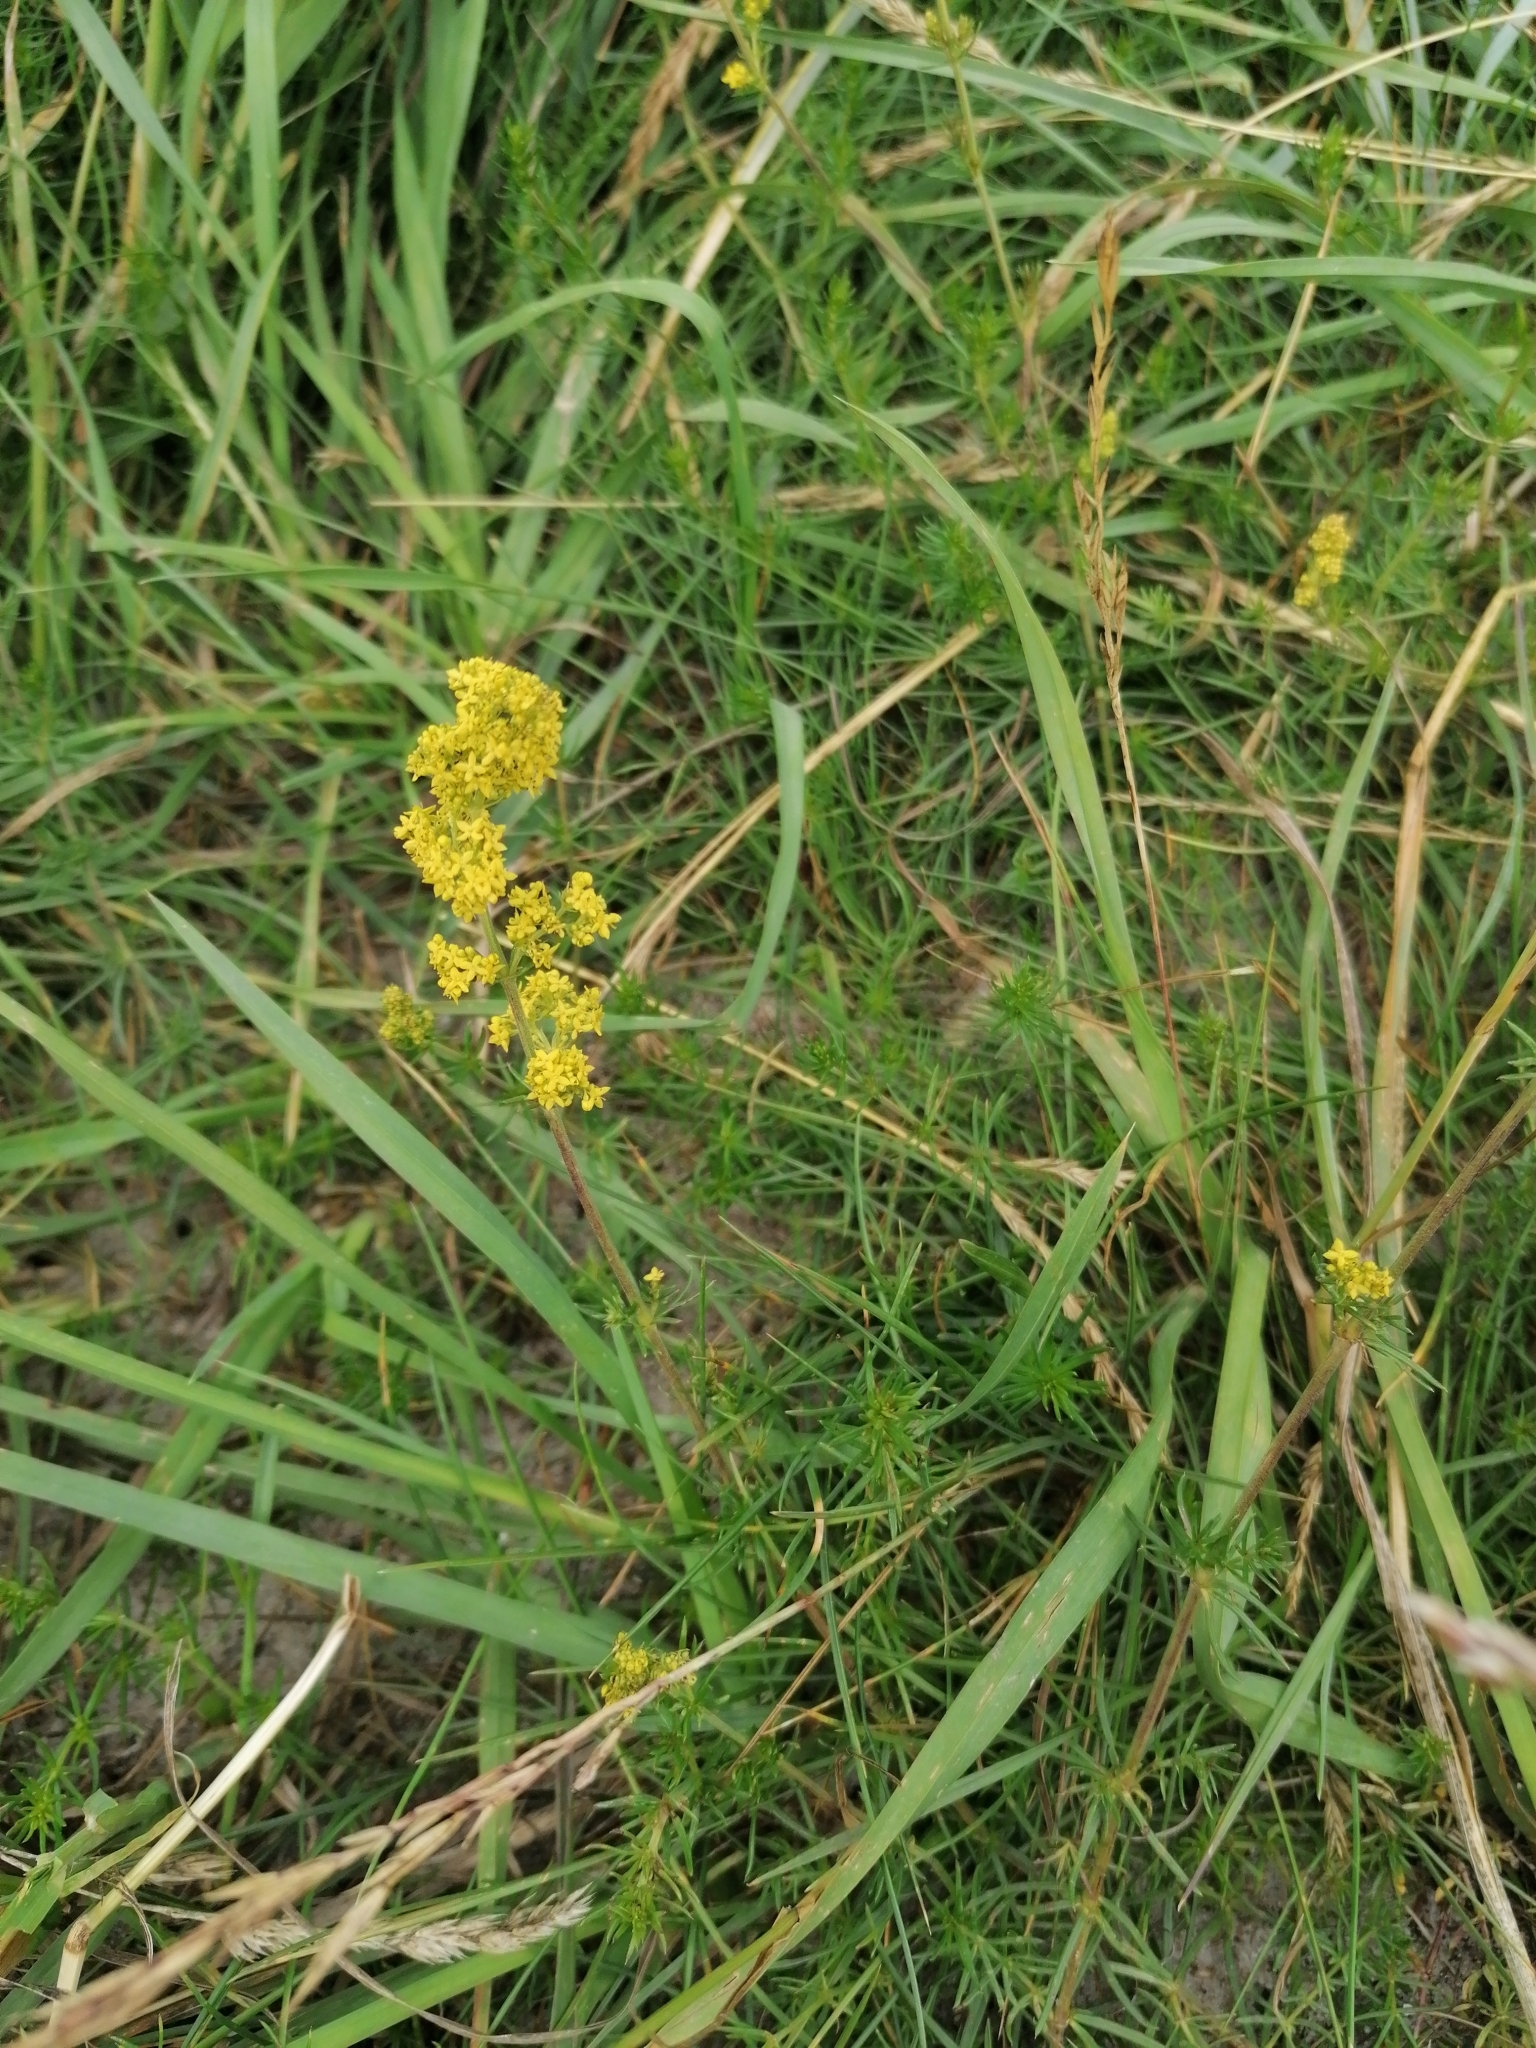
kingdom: Plantae
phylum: Tracheophyta
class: Magnoliopsida
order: Gentianales
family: Rubiaceae
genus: Galium
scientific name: Galium verum
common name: Lady's bedstraw
